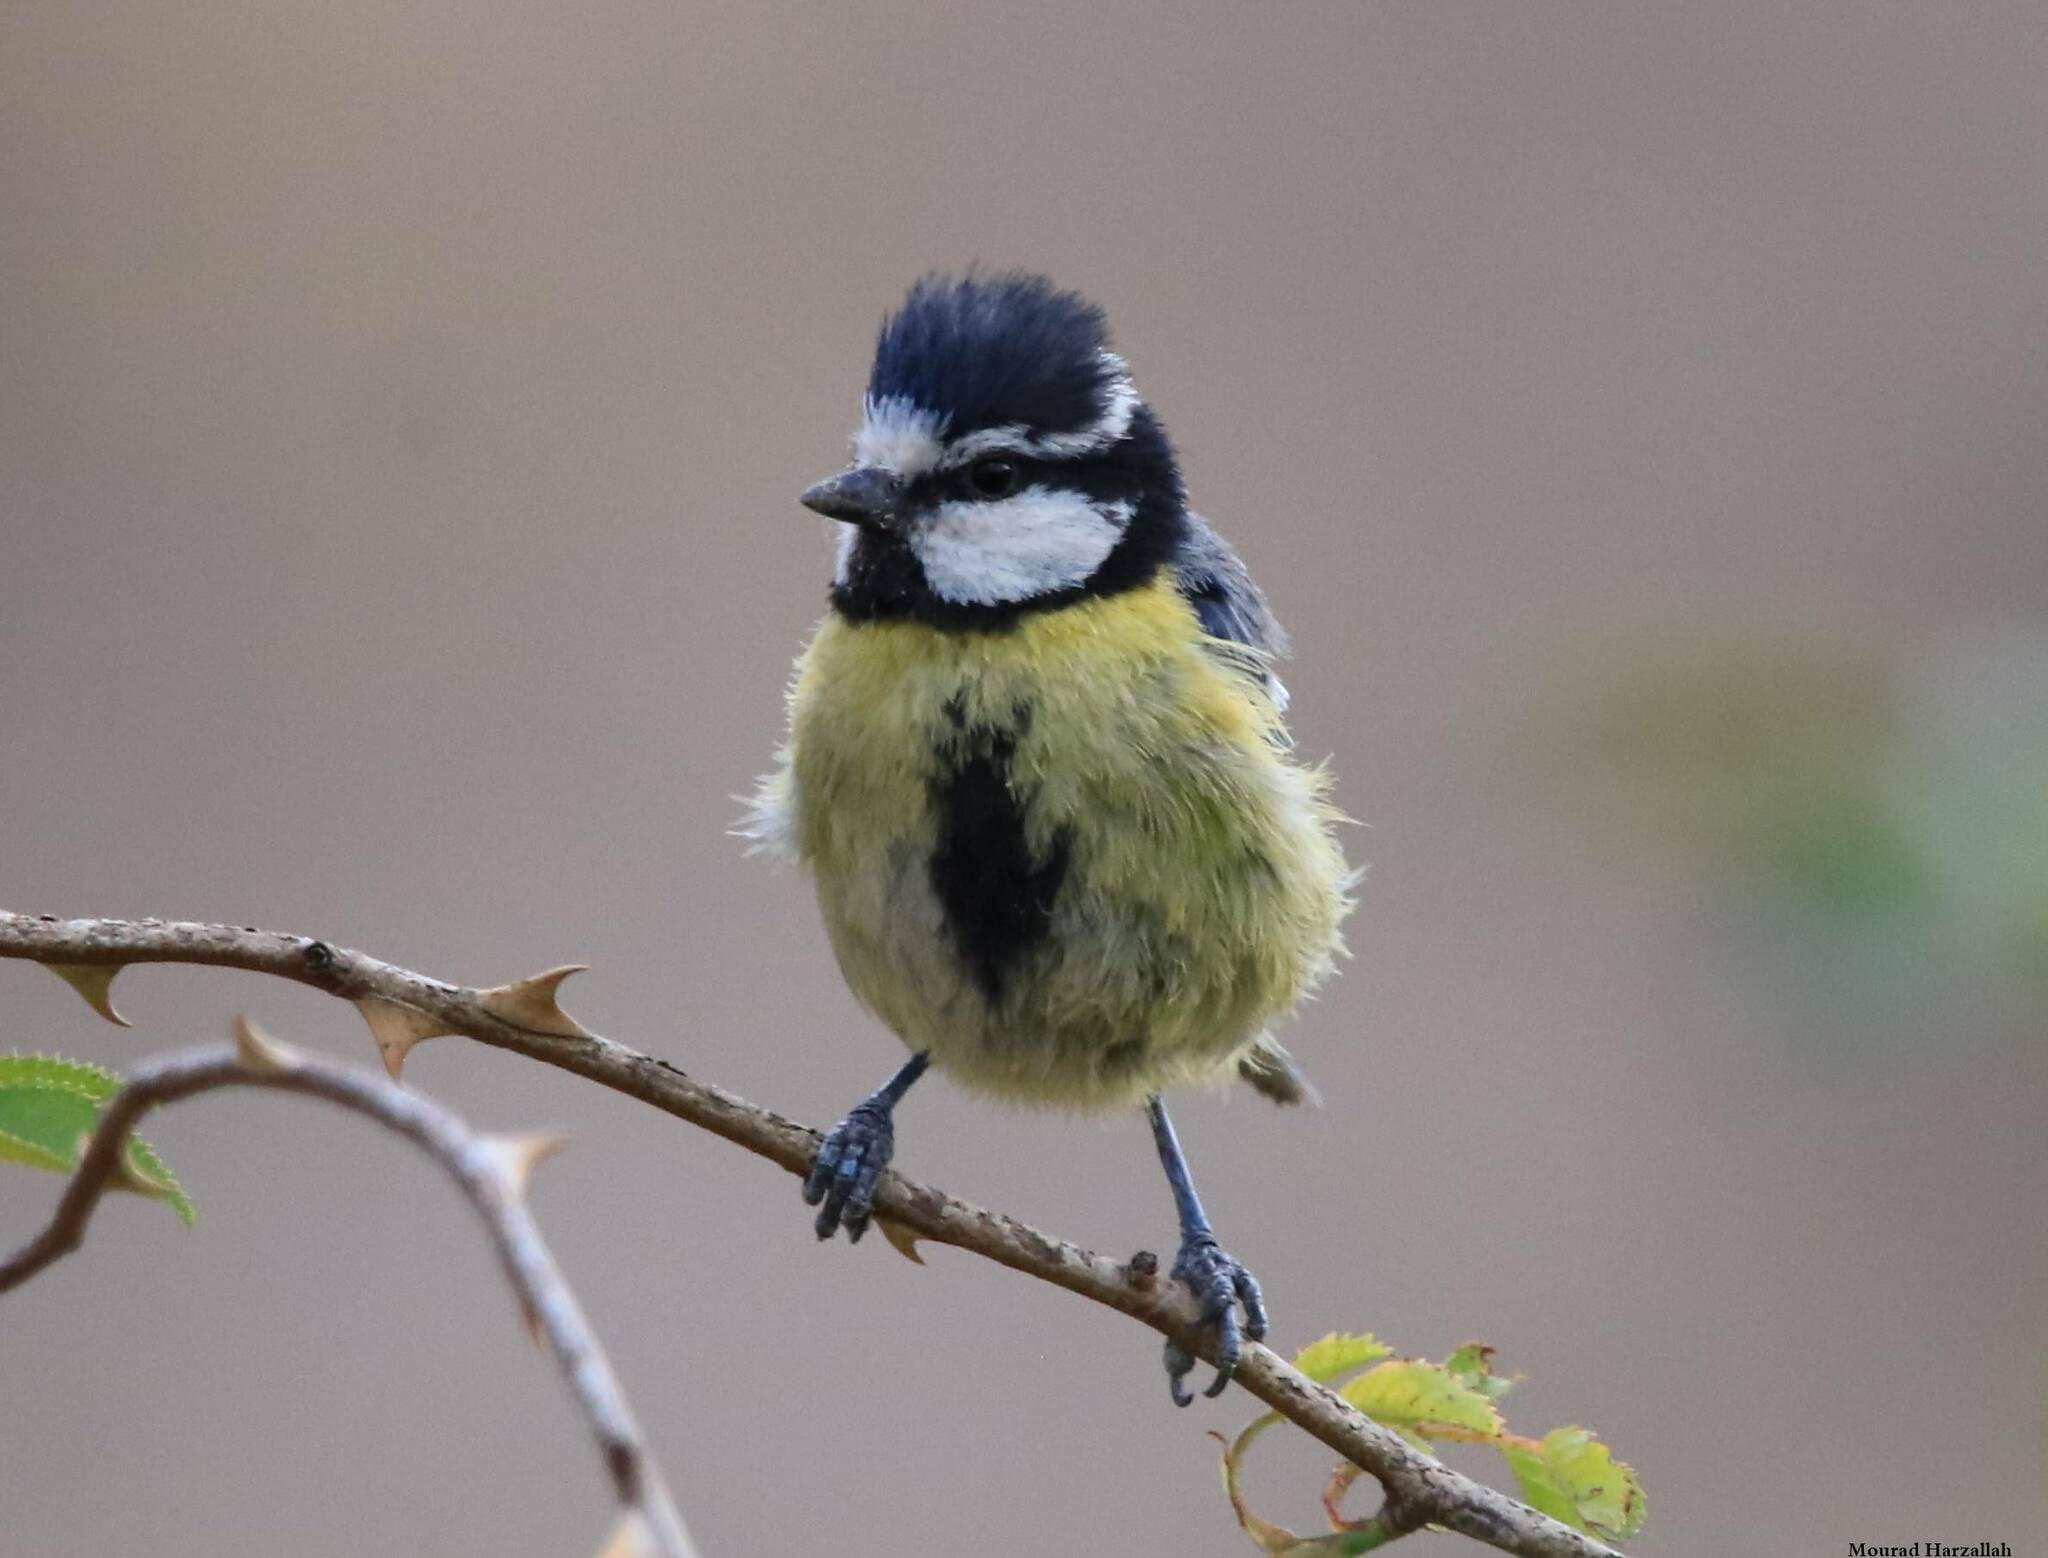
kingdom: Animalia
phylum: Chordata
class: Aves
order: Passeriformes
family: Paridae
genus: Cyanistes
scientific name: Cyanistes teneriffae
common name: African blue tit
